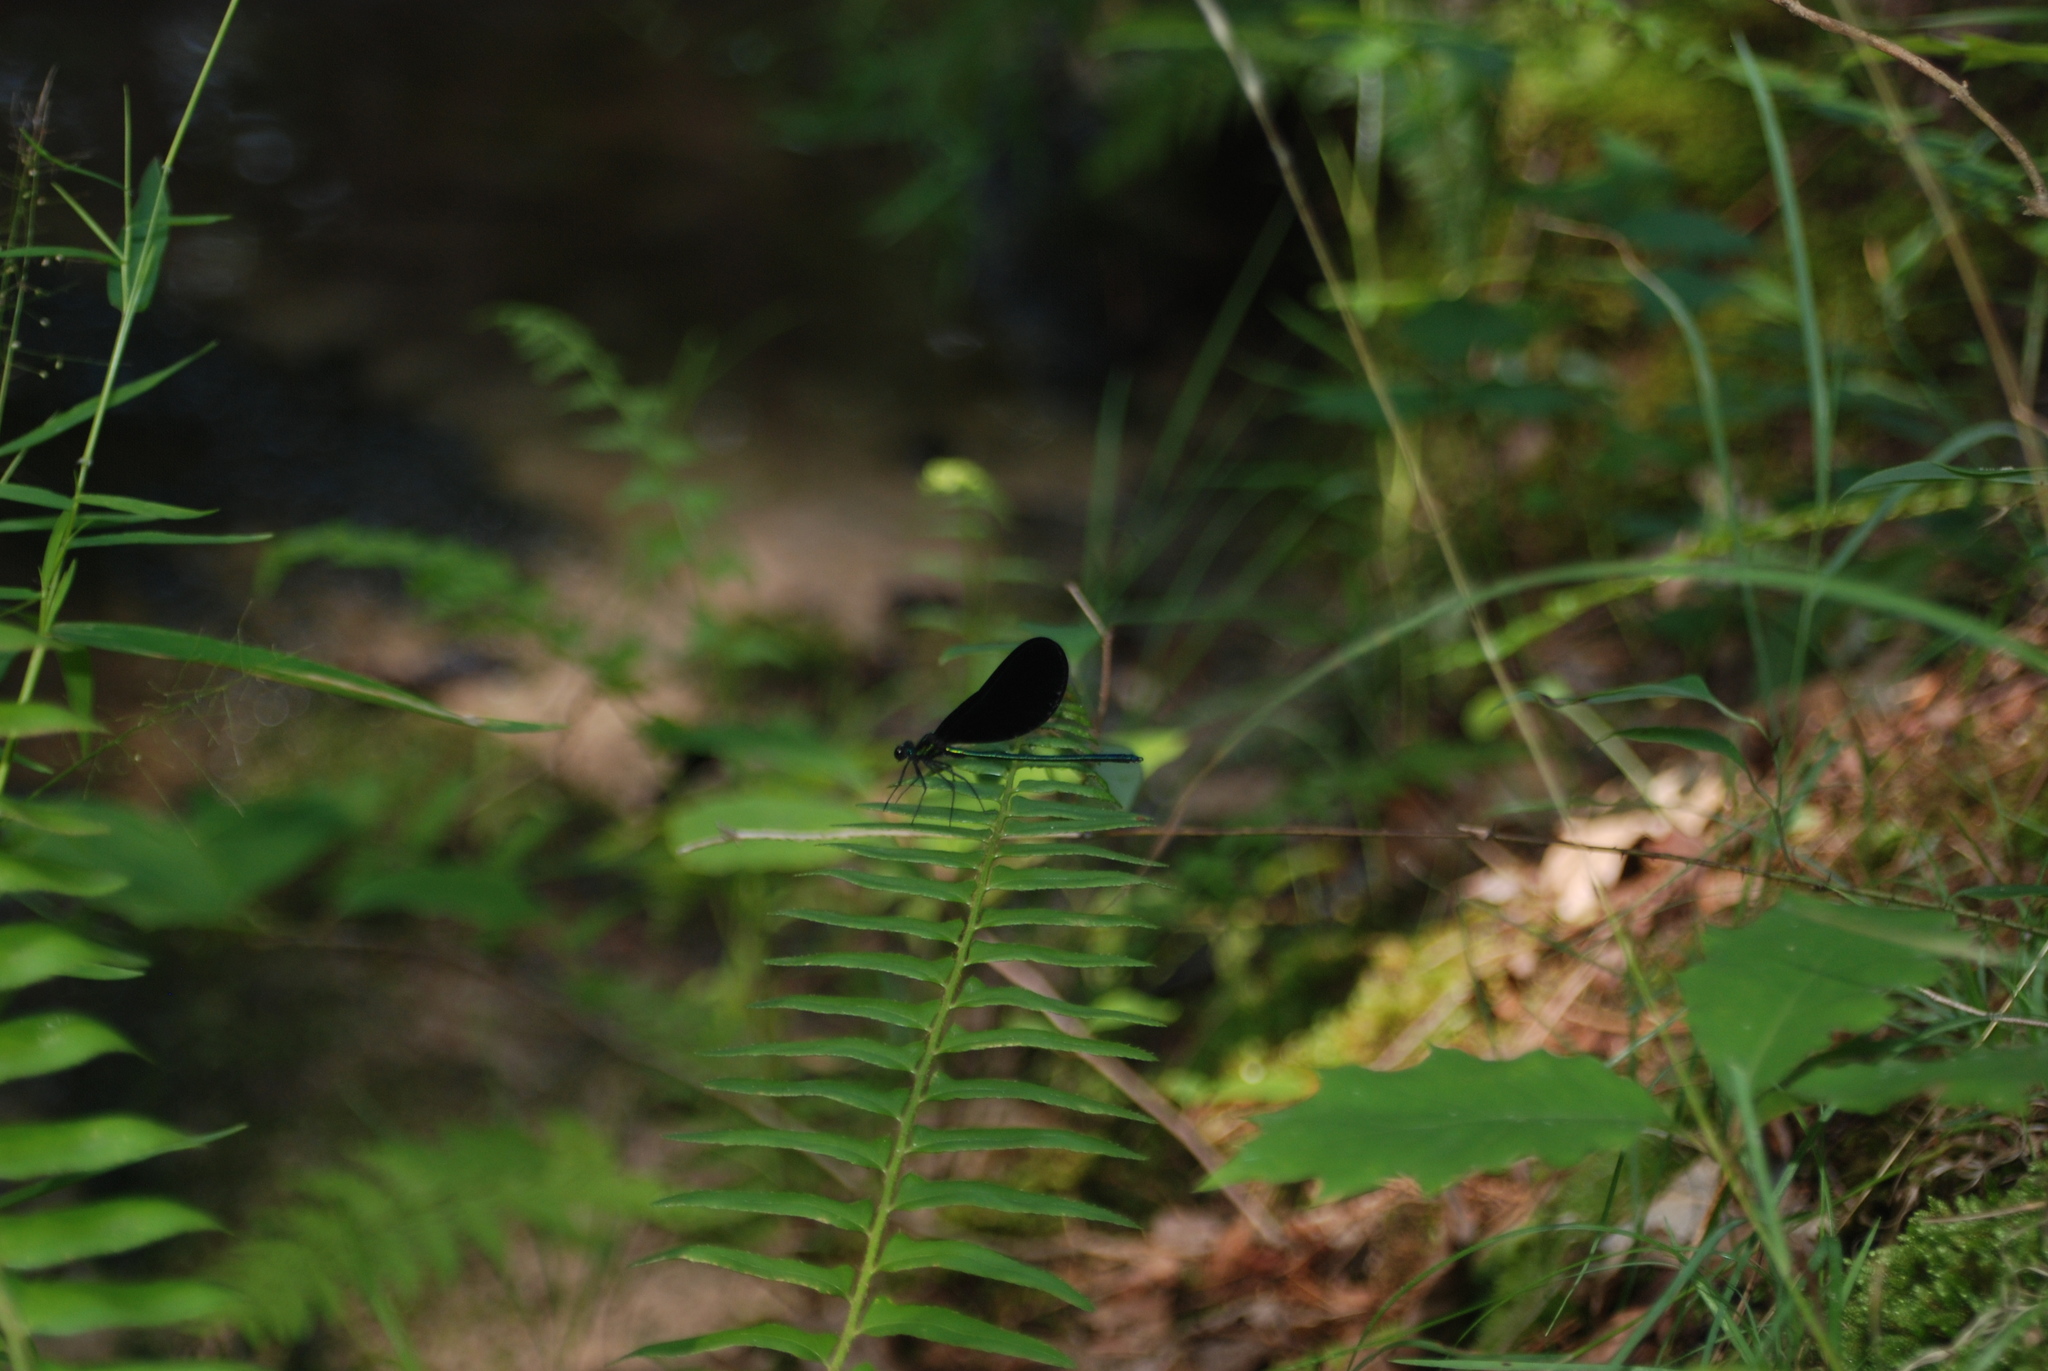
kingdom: Animalia
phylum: Arthropoda
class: Insecta
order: Odonata
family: Calopterygidae
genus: Calopteryx
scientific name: Calopteryx maculata
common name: Ebony jewelwing
